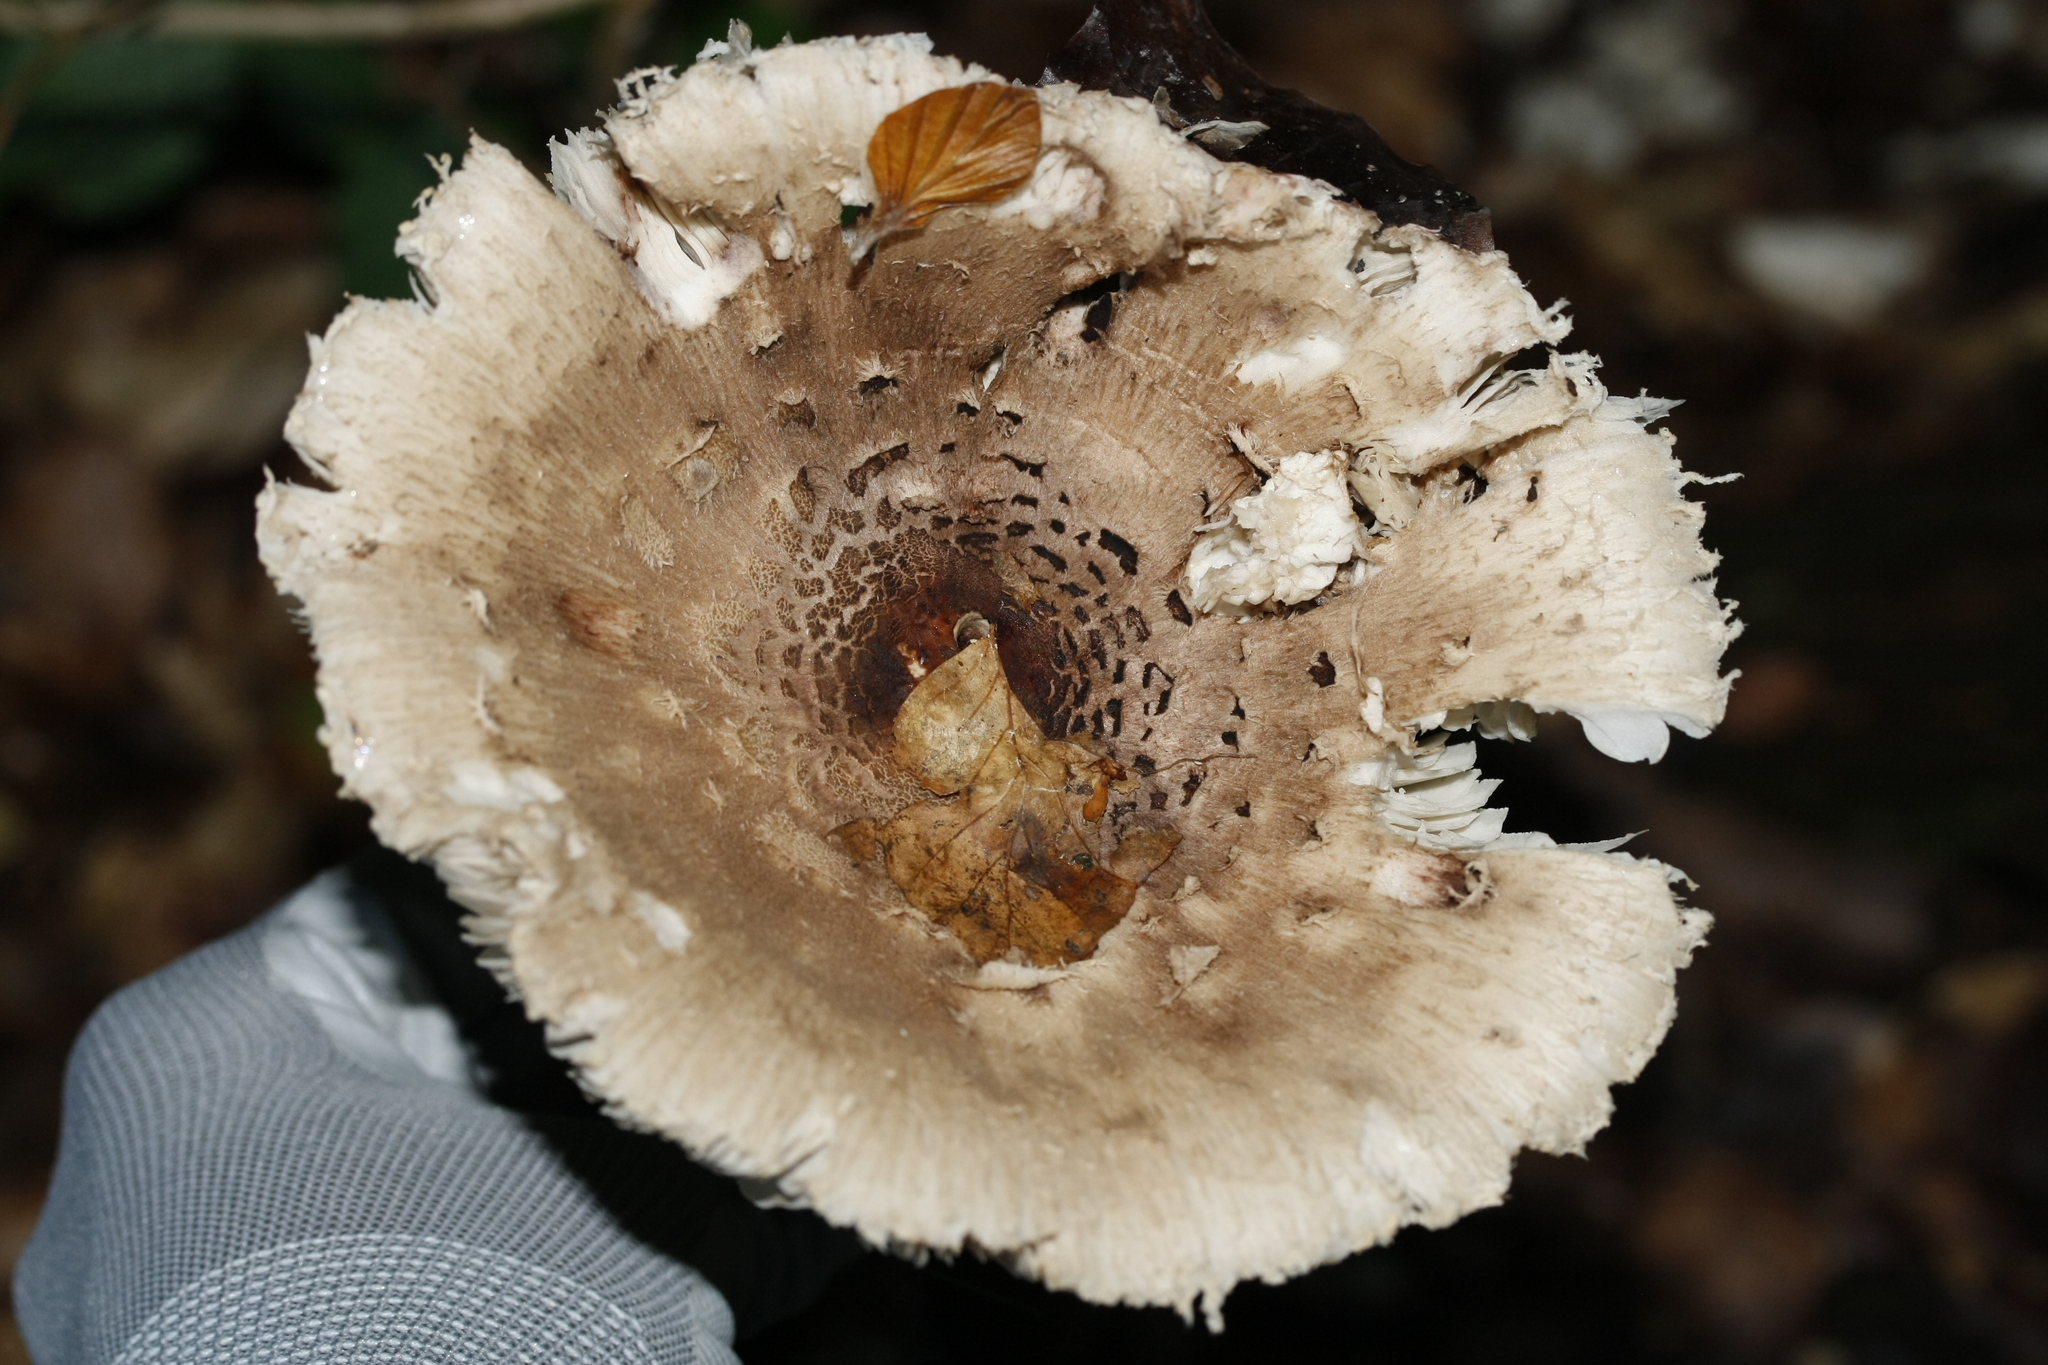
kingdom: Fungi
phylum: Basidiomycota
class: Agaricomycetes
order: Agaricales
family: Agaricaceae
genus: Macrolepiota
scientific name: Macrolepiota procera
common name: Parasol
